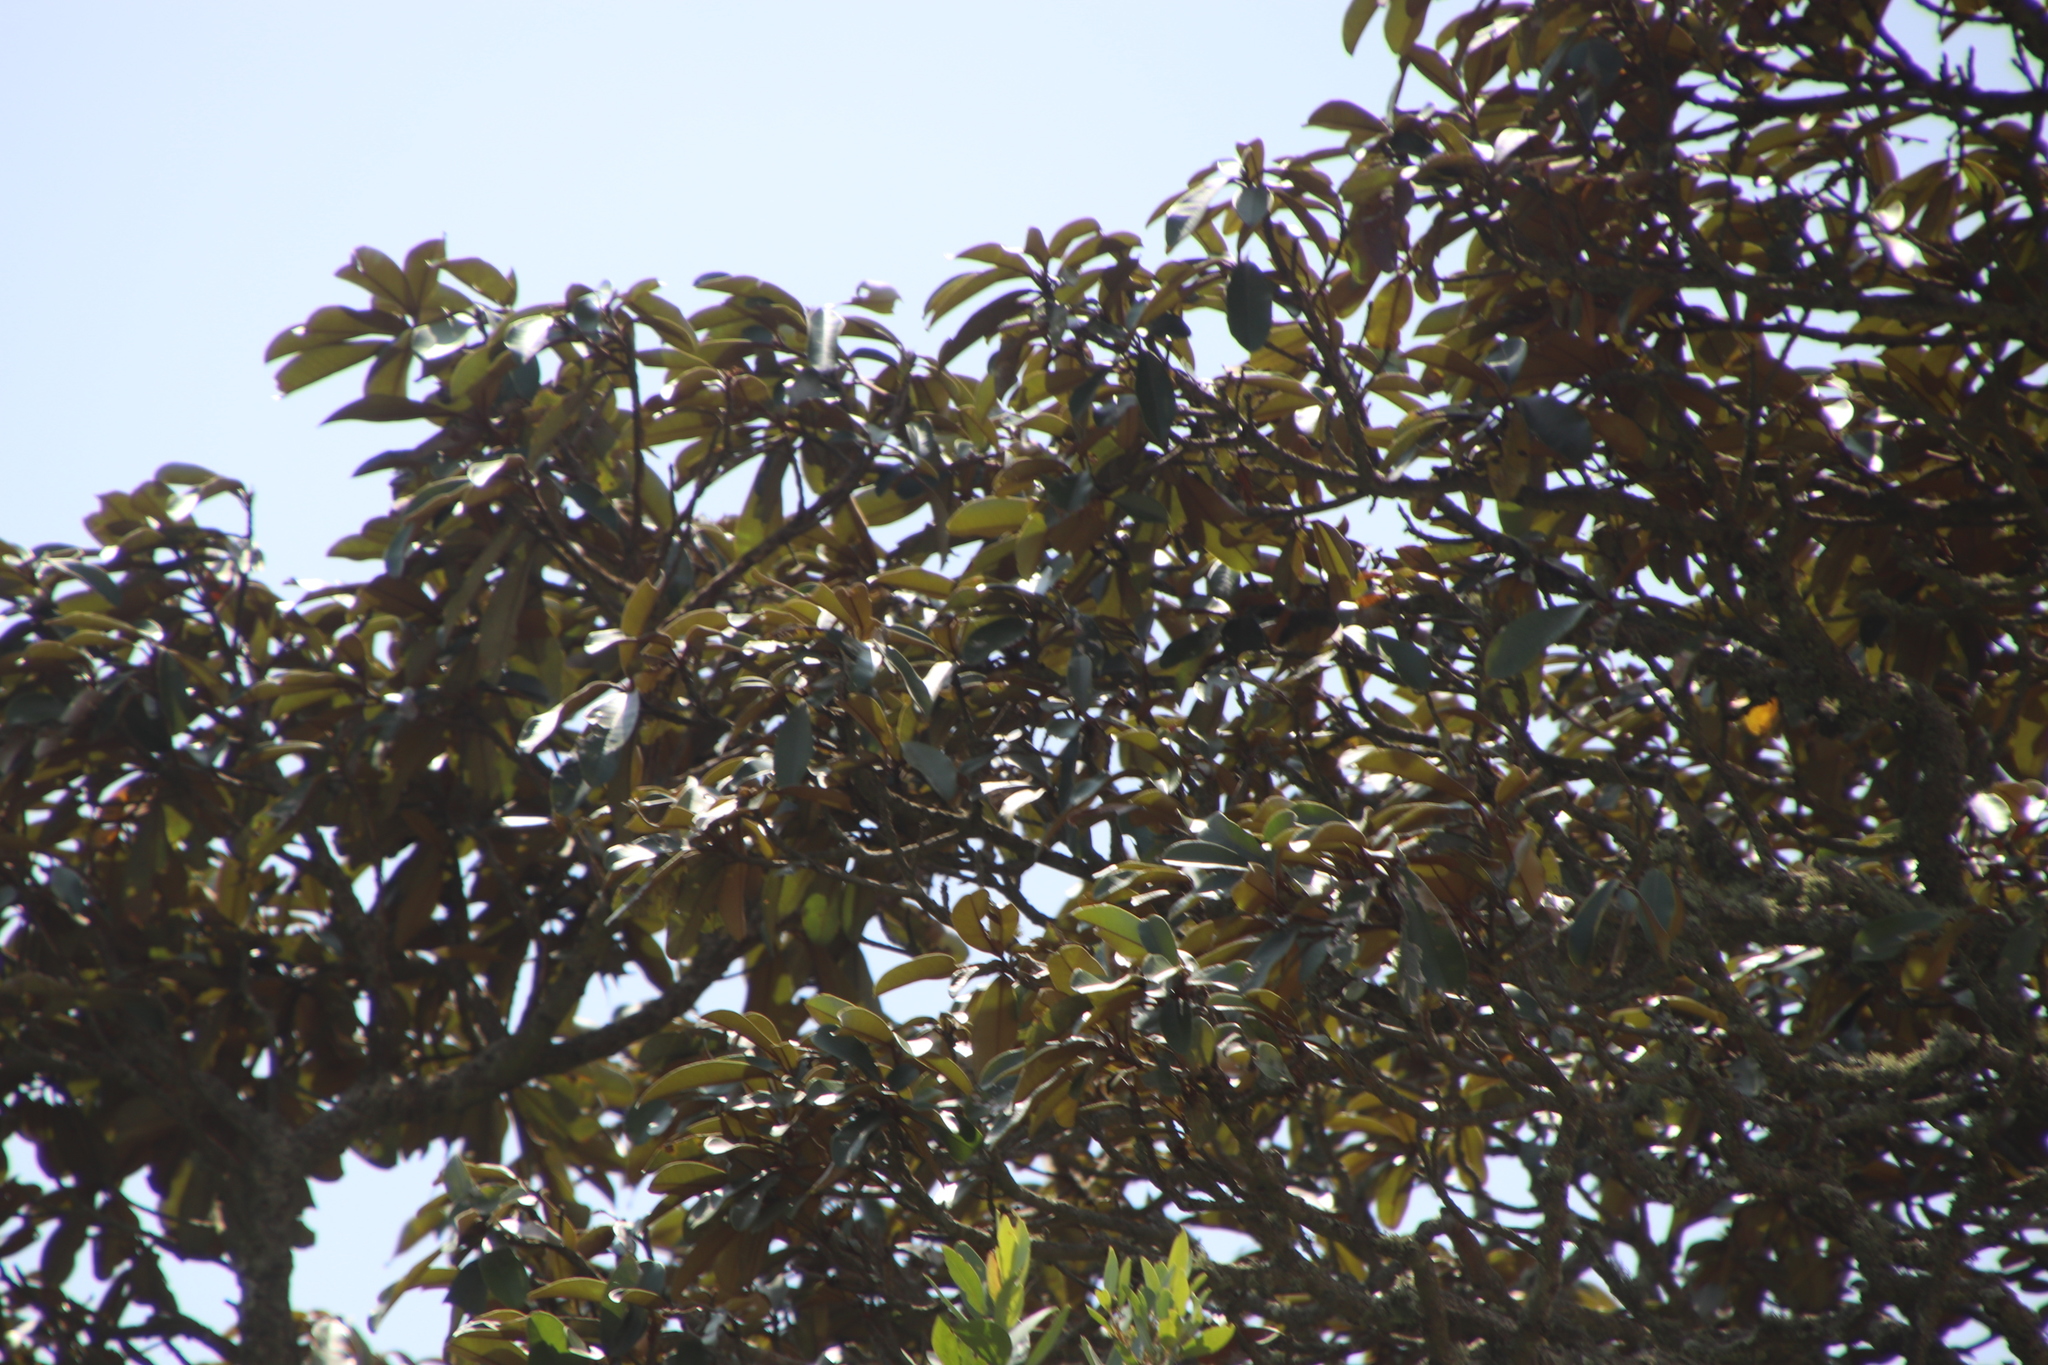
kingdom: Plantae
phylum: Tracheophyta
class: Magnoliopsida
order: Ericales
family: Sapotaceae
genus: Englerophytum
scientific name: Englerophytum magalismontanum
